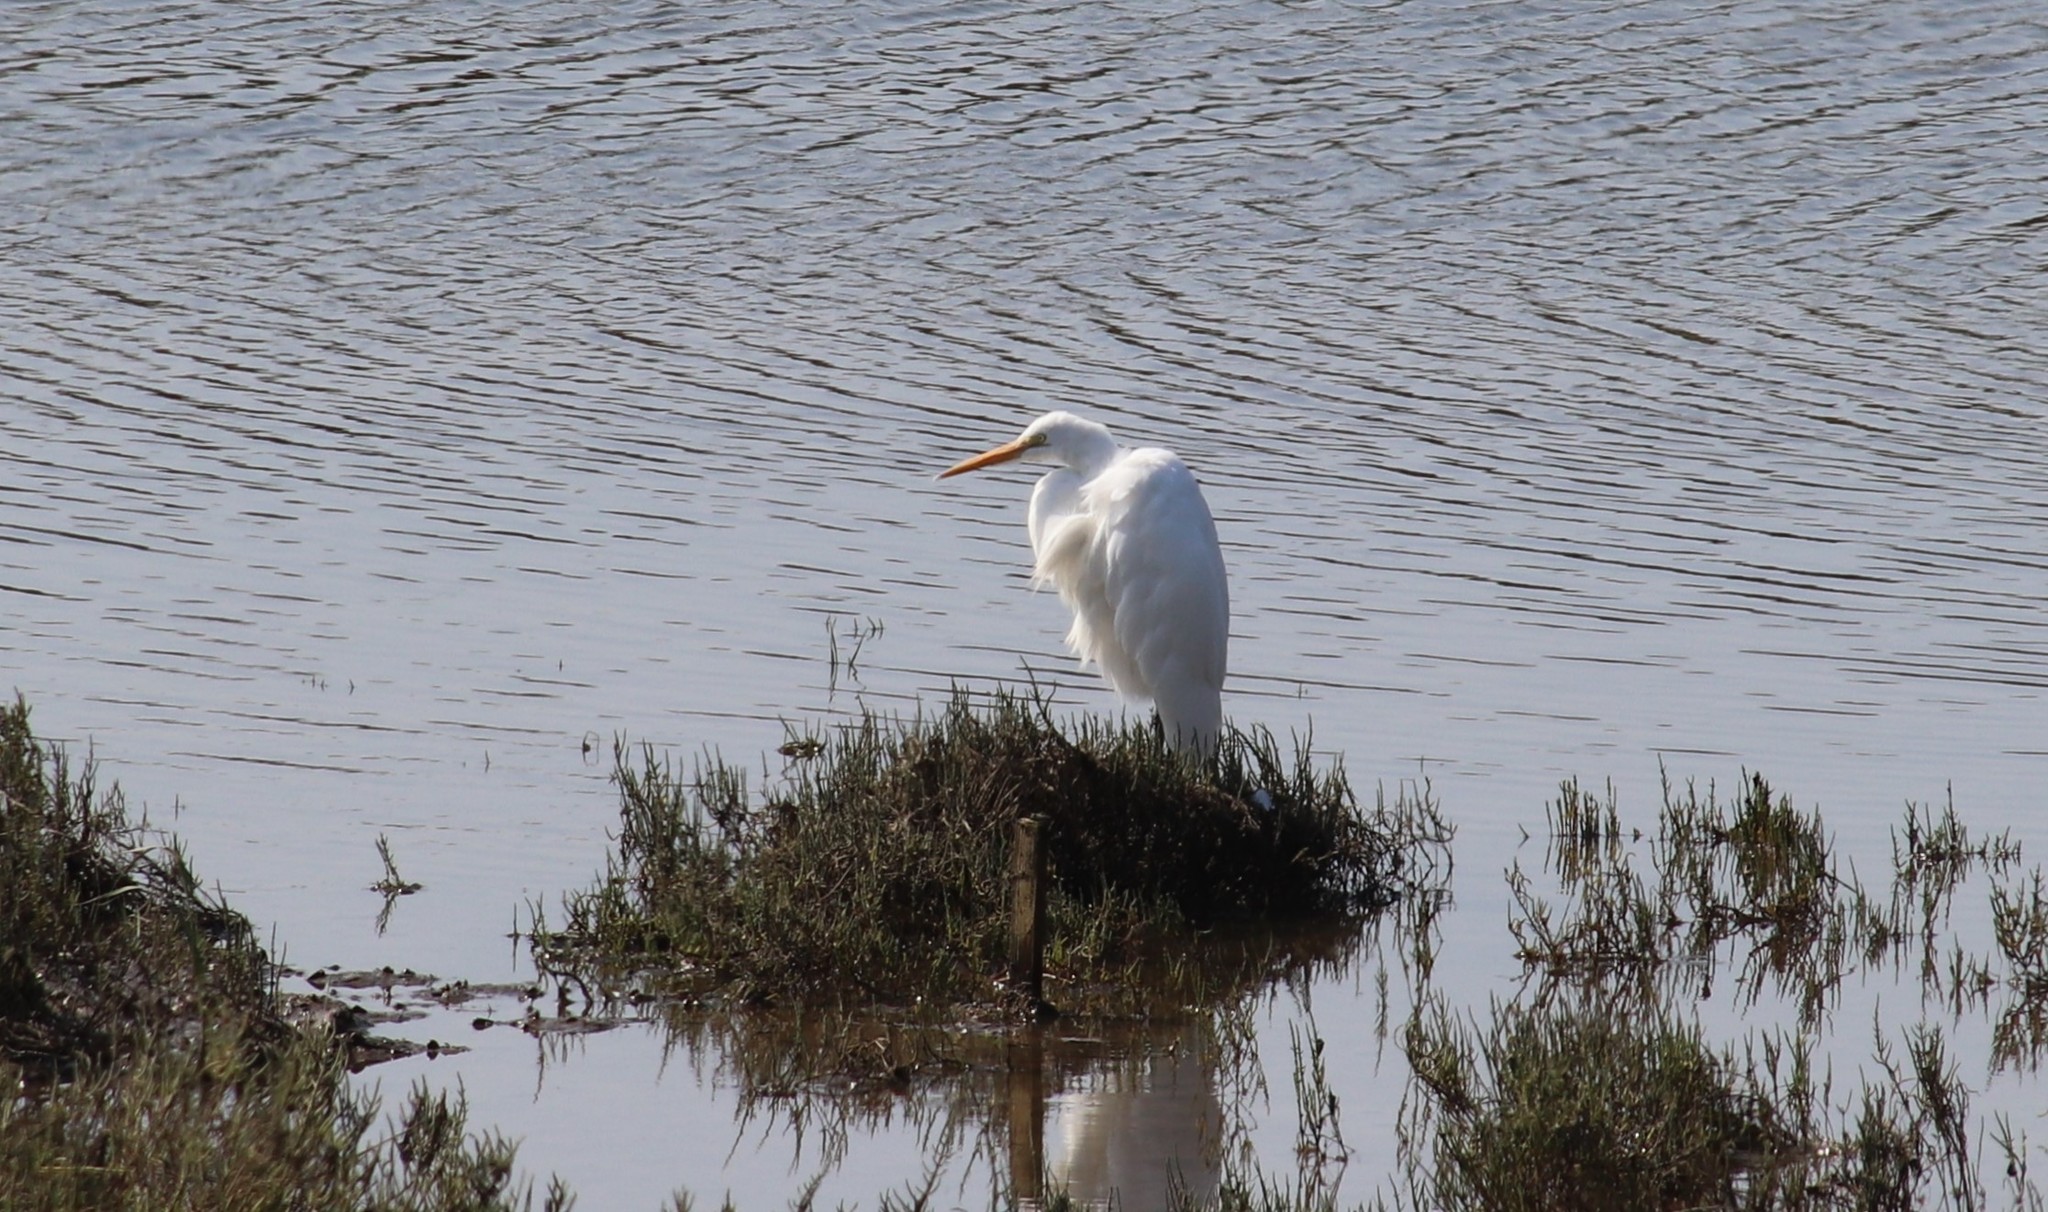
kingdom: Animalia
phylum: Chordata
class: Aves
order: Pelecaniformes
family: Ardeidae
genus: Ardea
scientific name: Ardea alba
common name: Great egret
